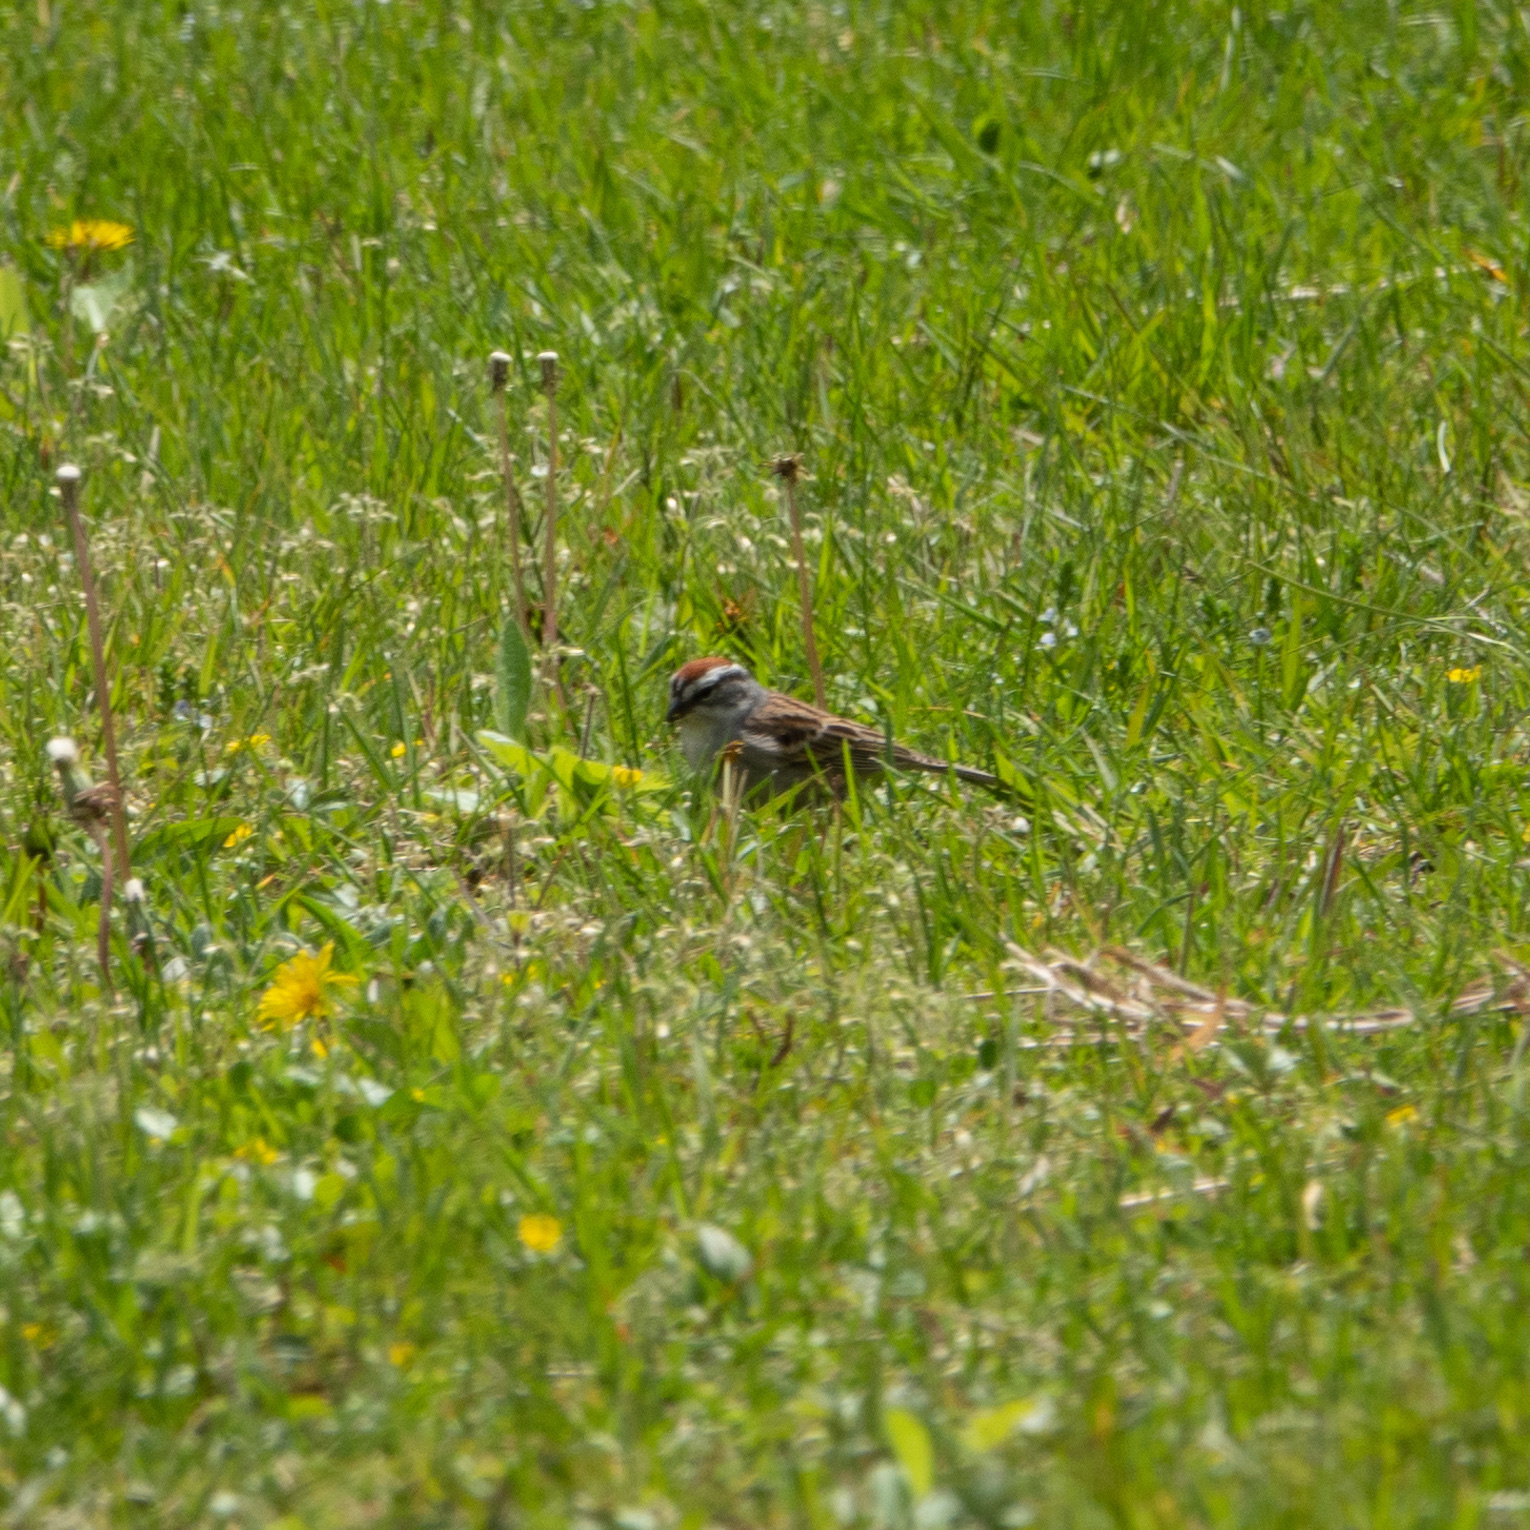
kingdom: Animalia
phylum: Chordata
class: Aves
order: Passeriformes
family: Passerellidae
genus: Spizella
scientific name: Spizella passerina
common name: Chipping sparrow
